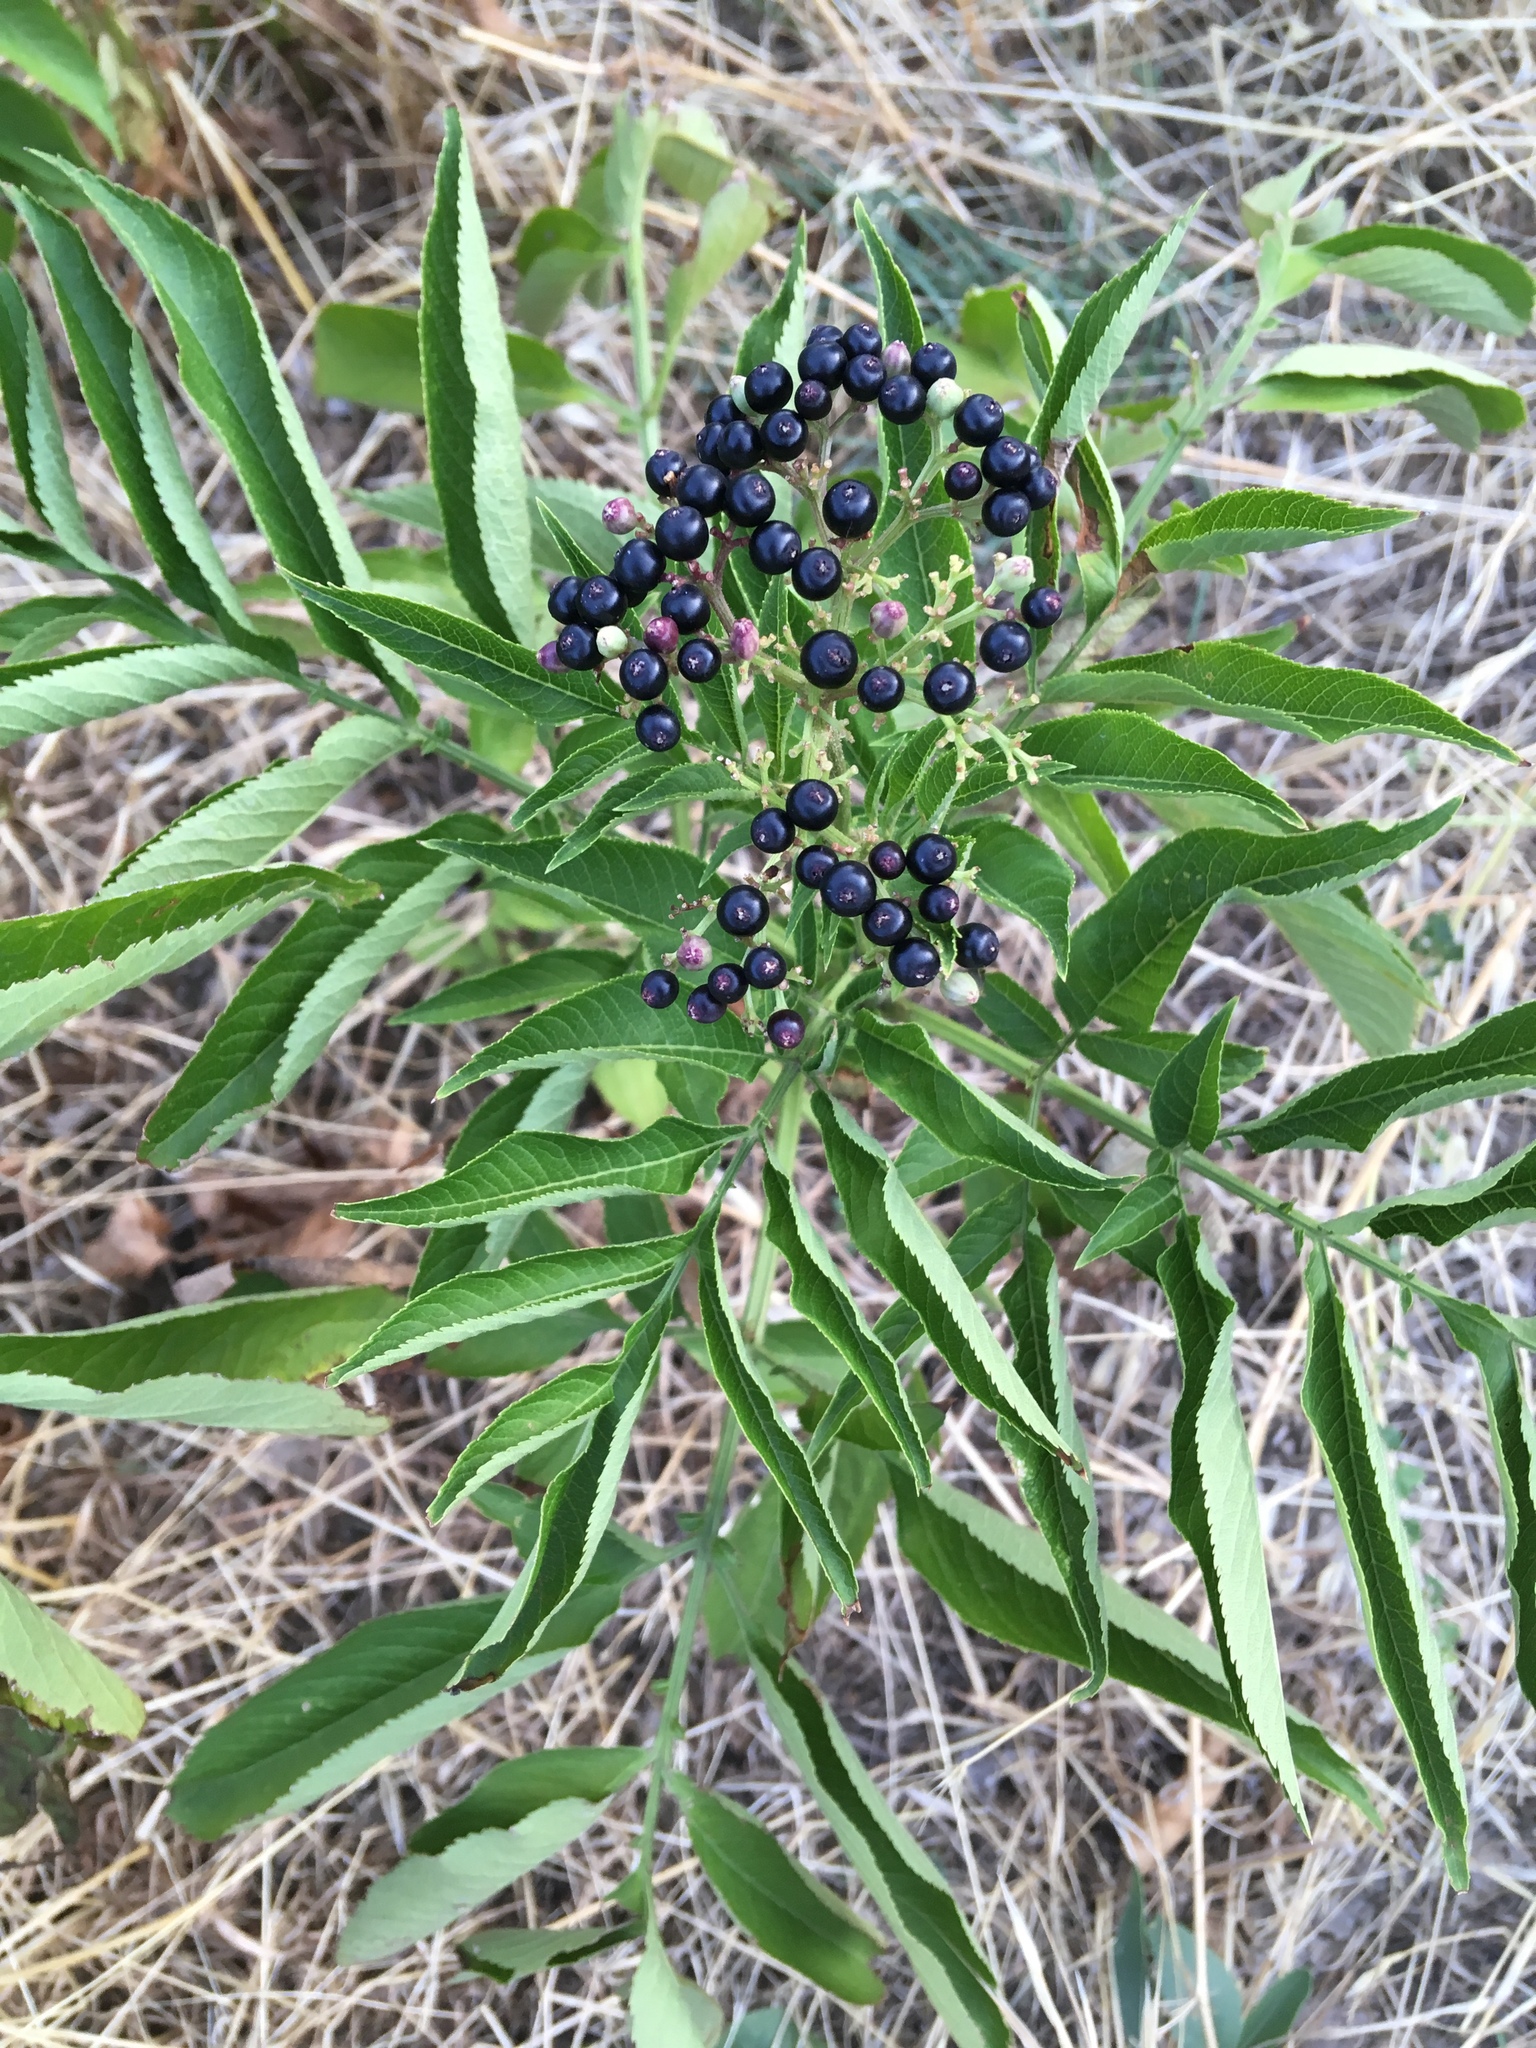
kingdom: Plantae
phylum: Tracheophyta
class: Magnoliopsida
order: Dipsacales
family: Viburnaceae
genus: Sambucus
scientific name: Sambucus ebulus
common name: Dwarf elder
